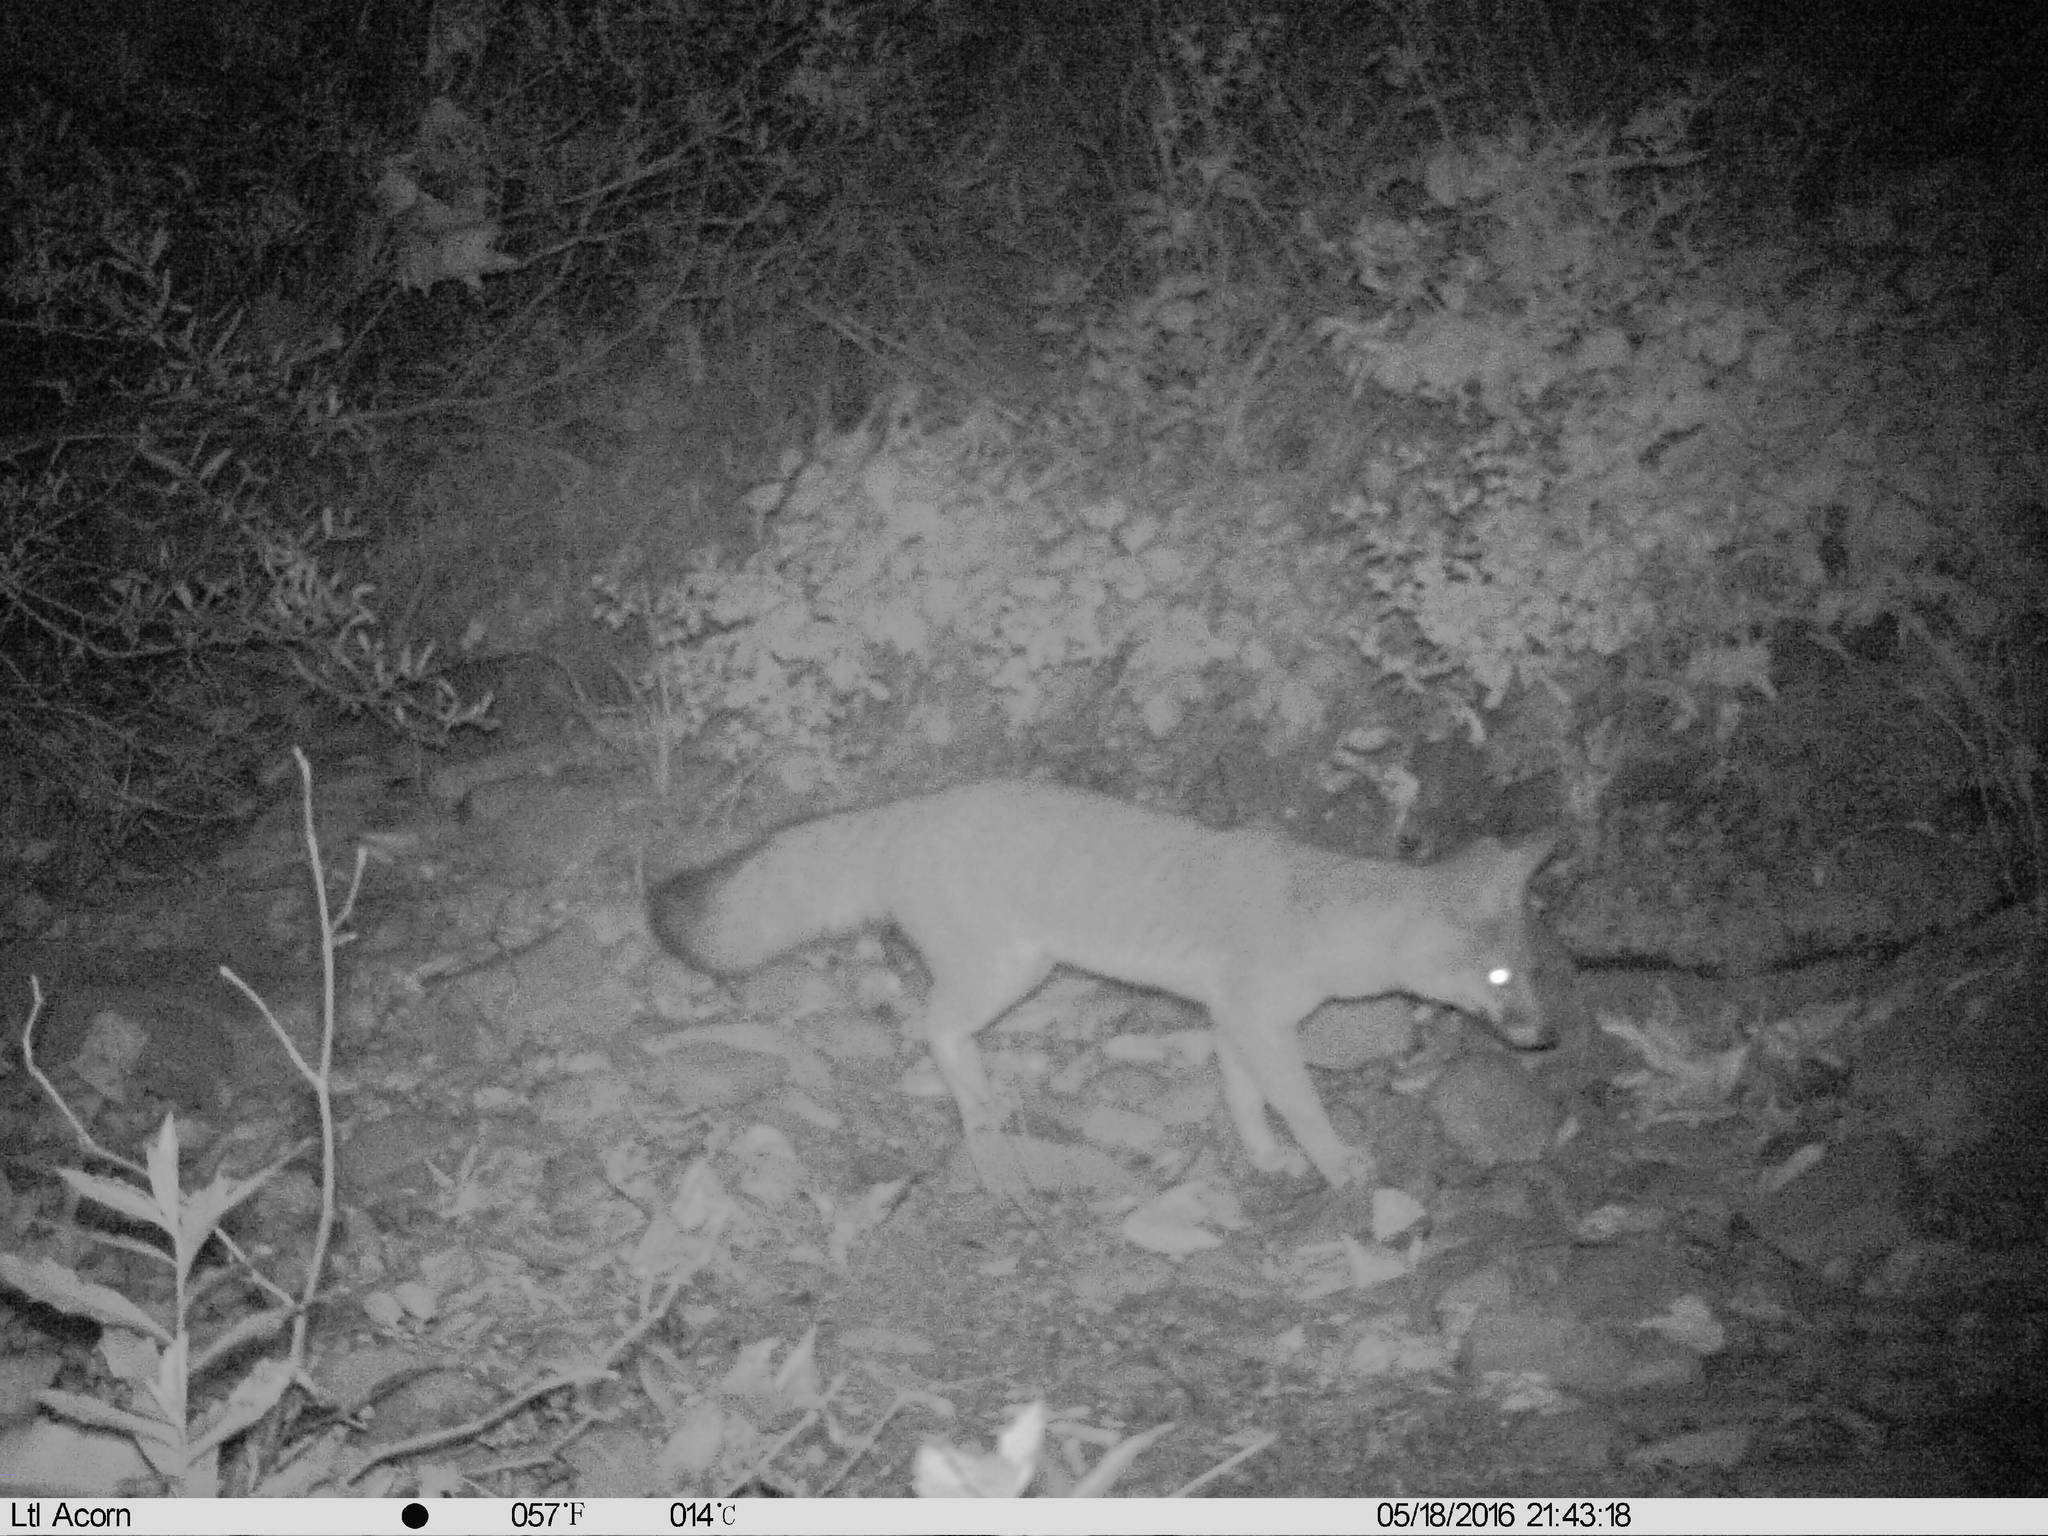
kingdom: Animalia
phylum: Chordata
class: Mammalia
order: Carnivora
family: Canidae
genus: Urocyon
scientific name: Urocyon cinereoargenteus
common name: Gray fox
